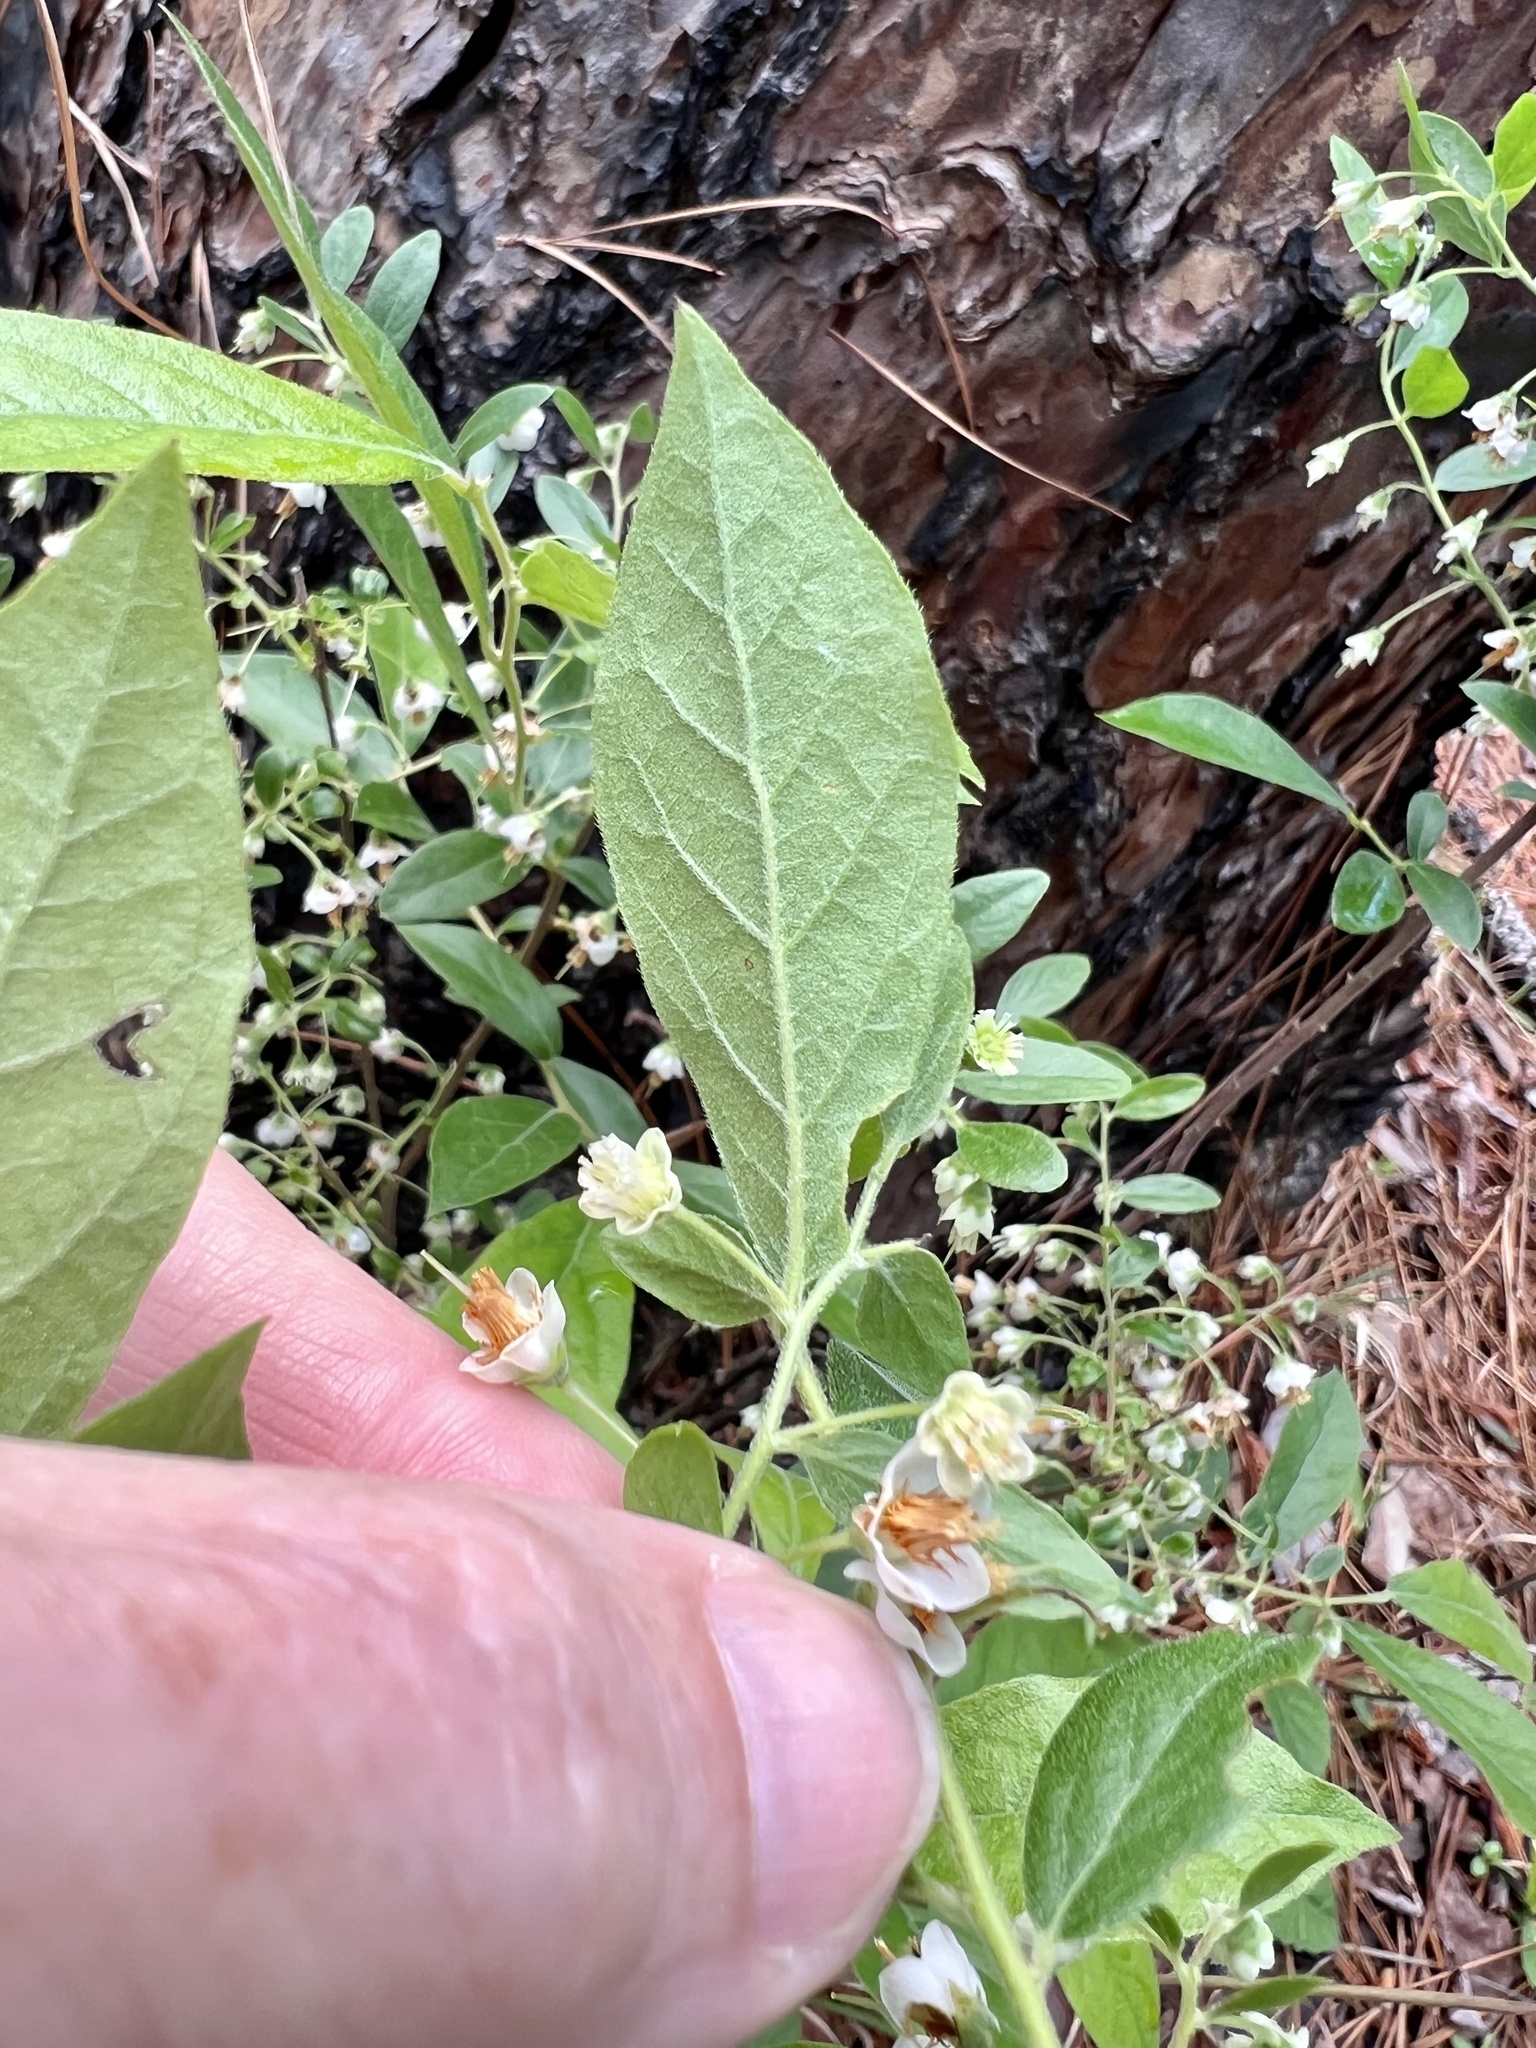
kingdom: Plantae
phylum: Tracheophyta
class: Magnoliopsida
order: Ericales
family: Ericaceae
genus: Vaccinium
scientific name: Vaccinium stamineum
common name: Deerberry
